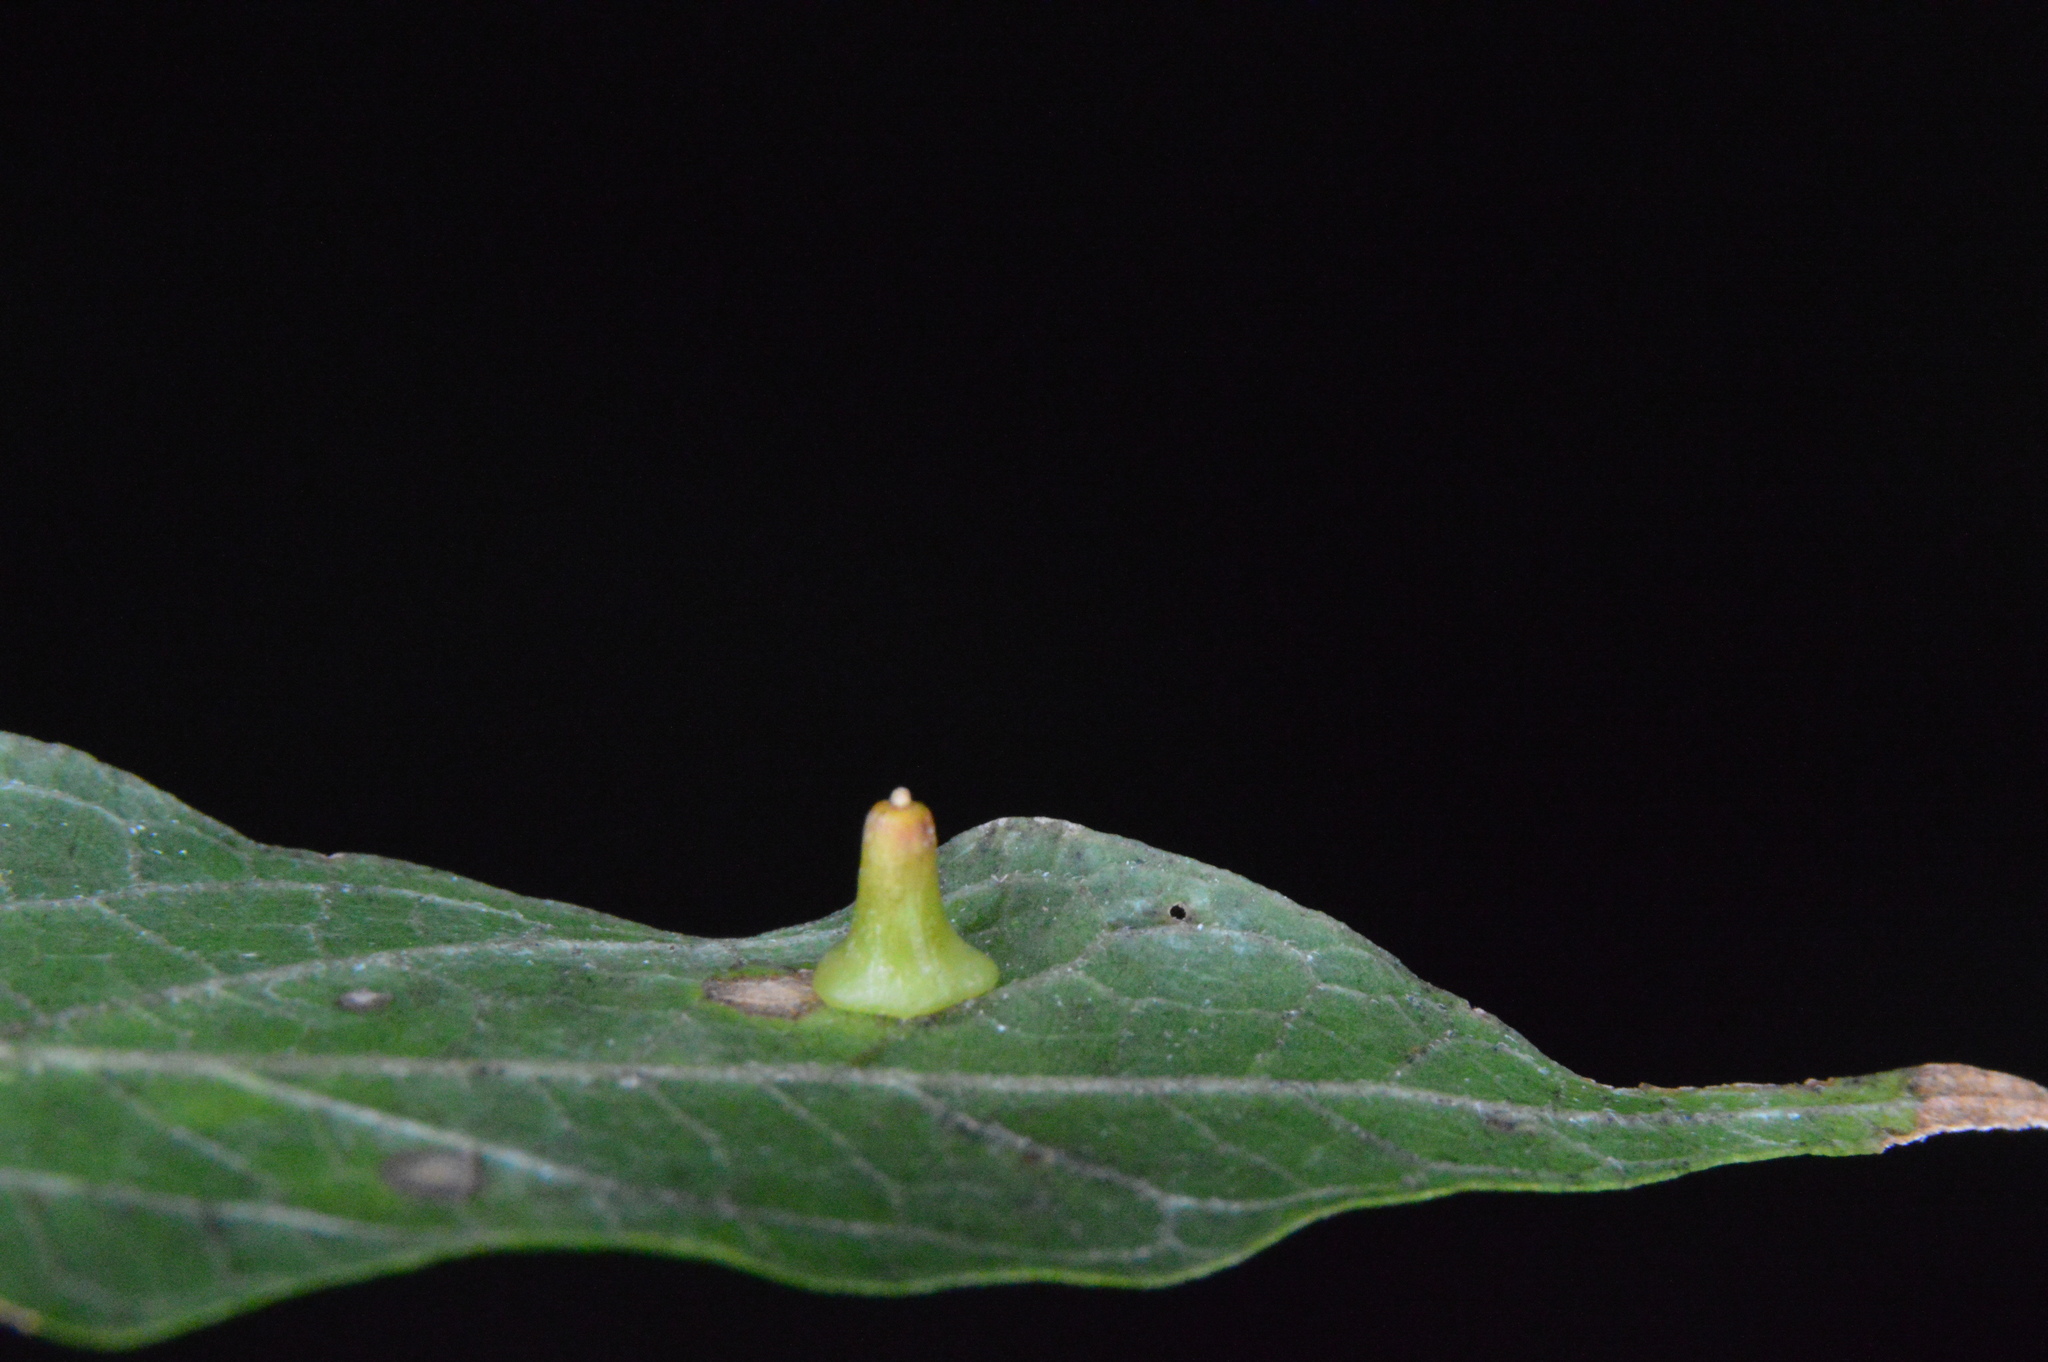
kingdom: Animalia
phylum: Arthropoda
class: Insecta
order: Diptera
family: Cecidomyiidae
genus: Celticecis
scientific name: Celticecis aciculata
